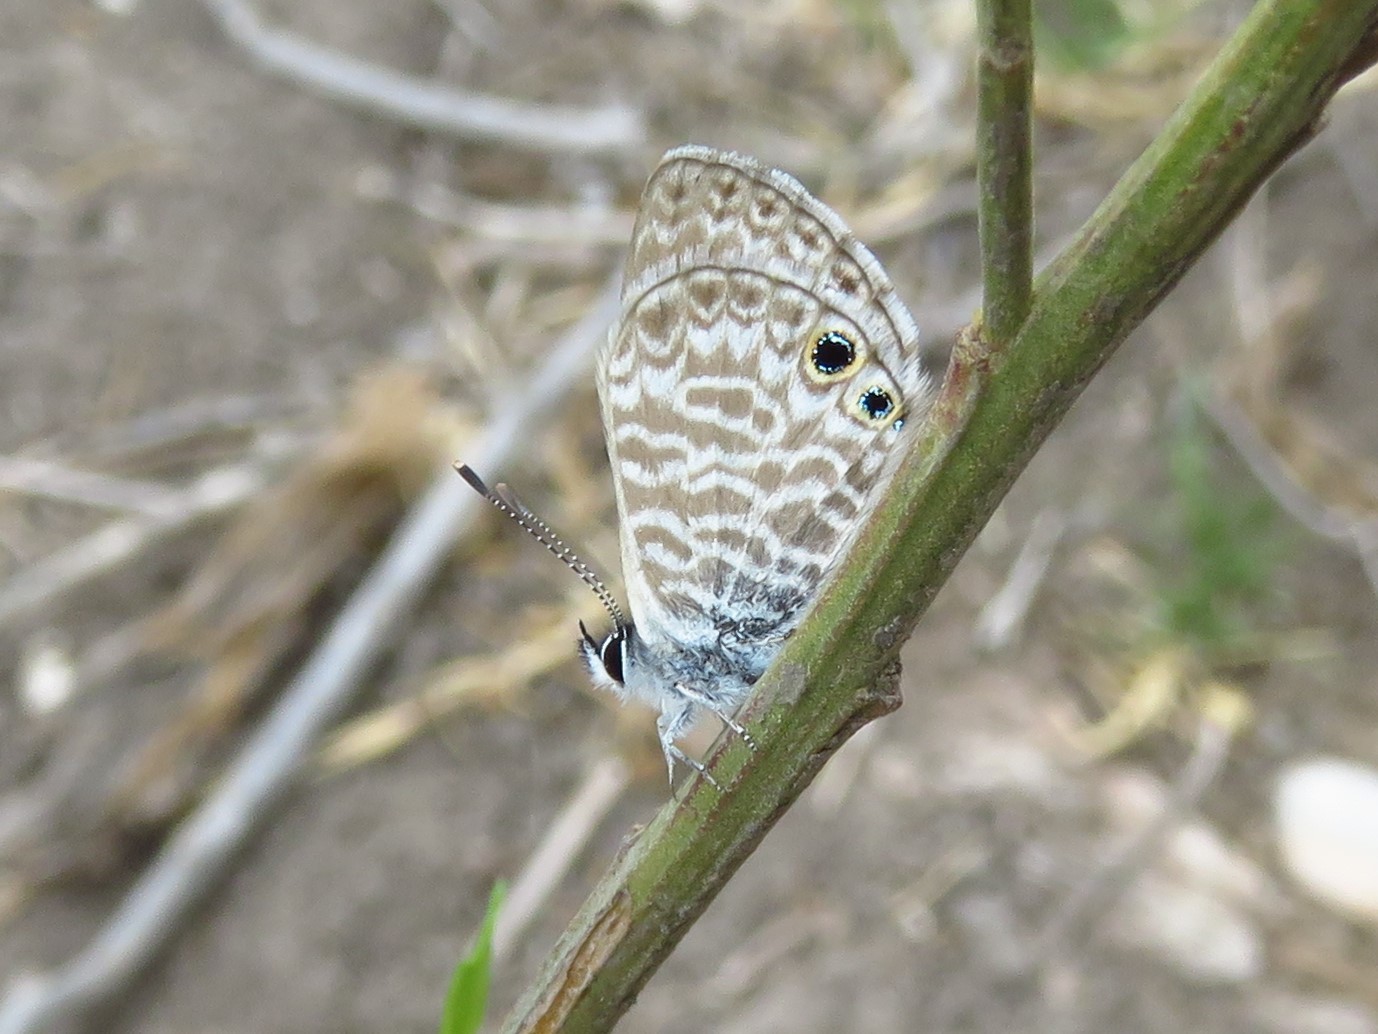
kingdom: Animalia
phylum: Arthropoda
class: Insecta
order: Lepidoptera
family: Lycaenidae
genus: Leptotes
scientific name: Leptotes marina
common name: Marine blue
